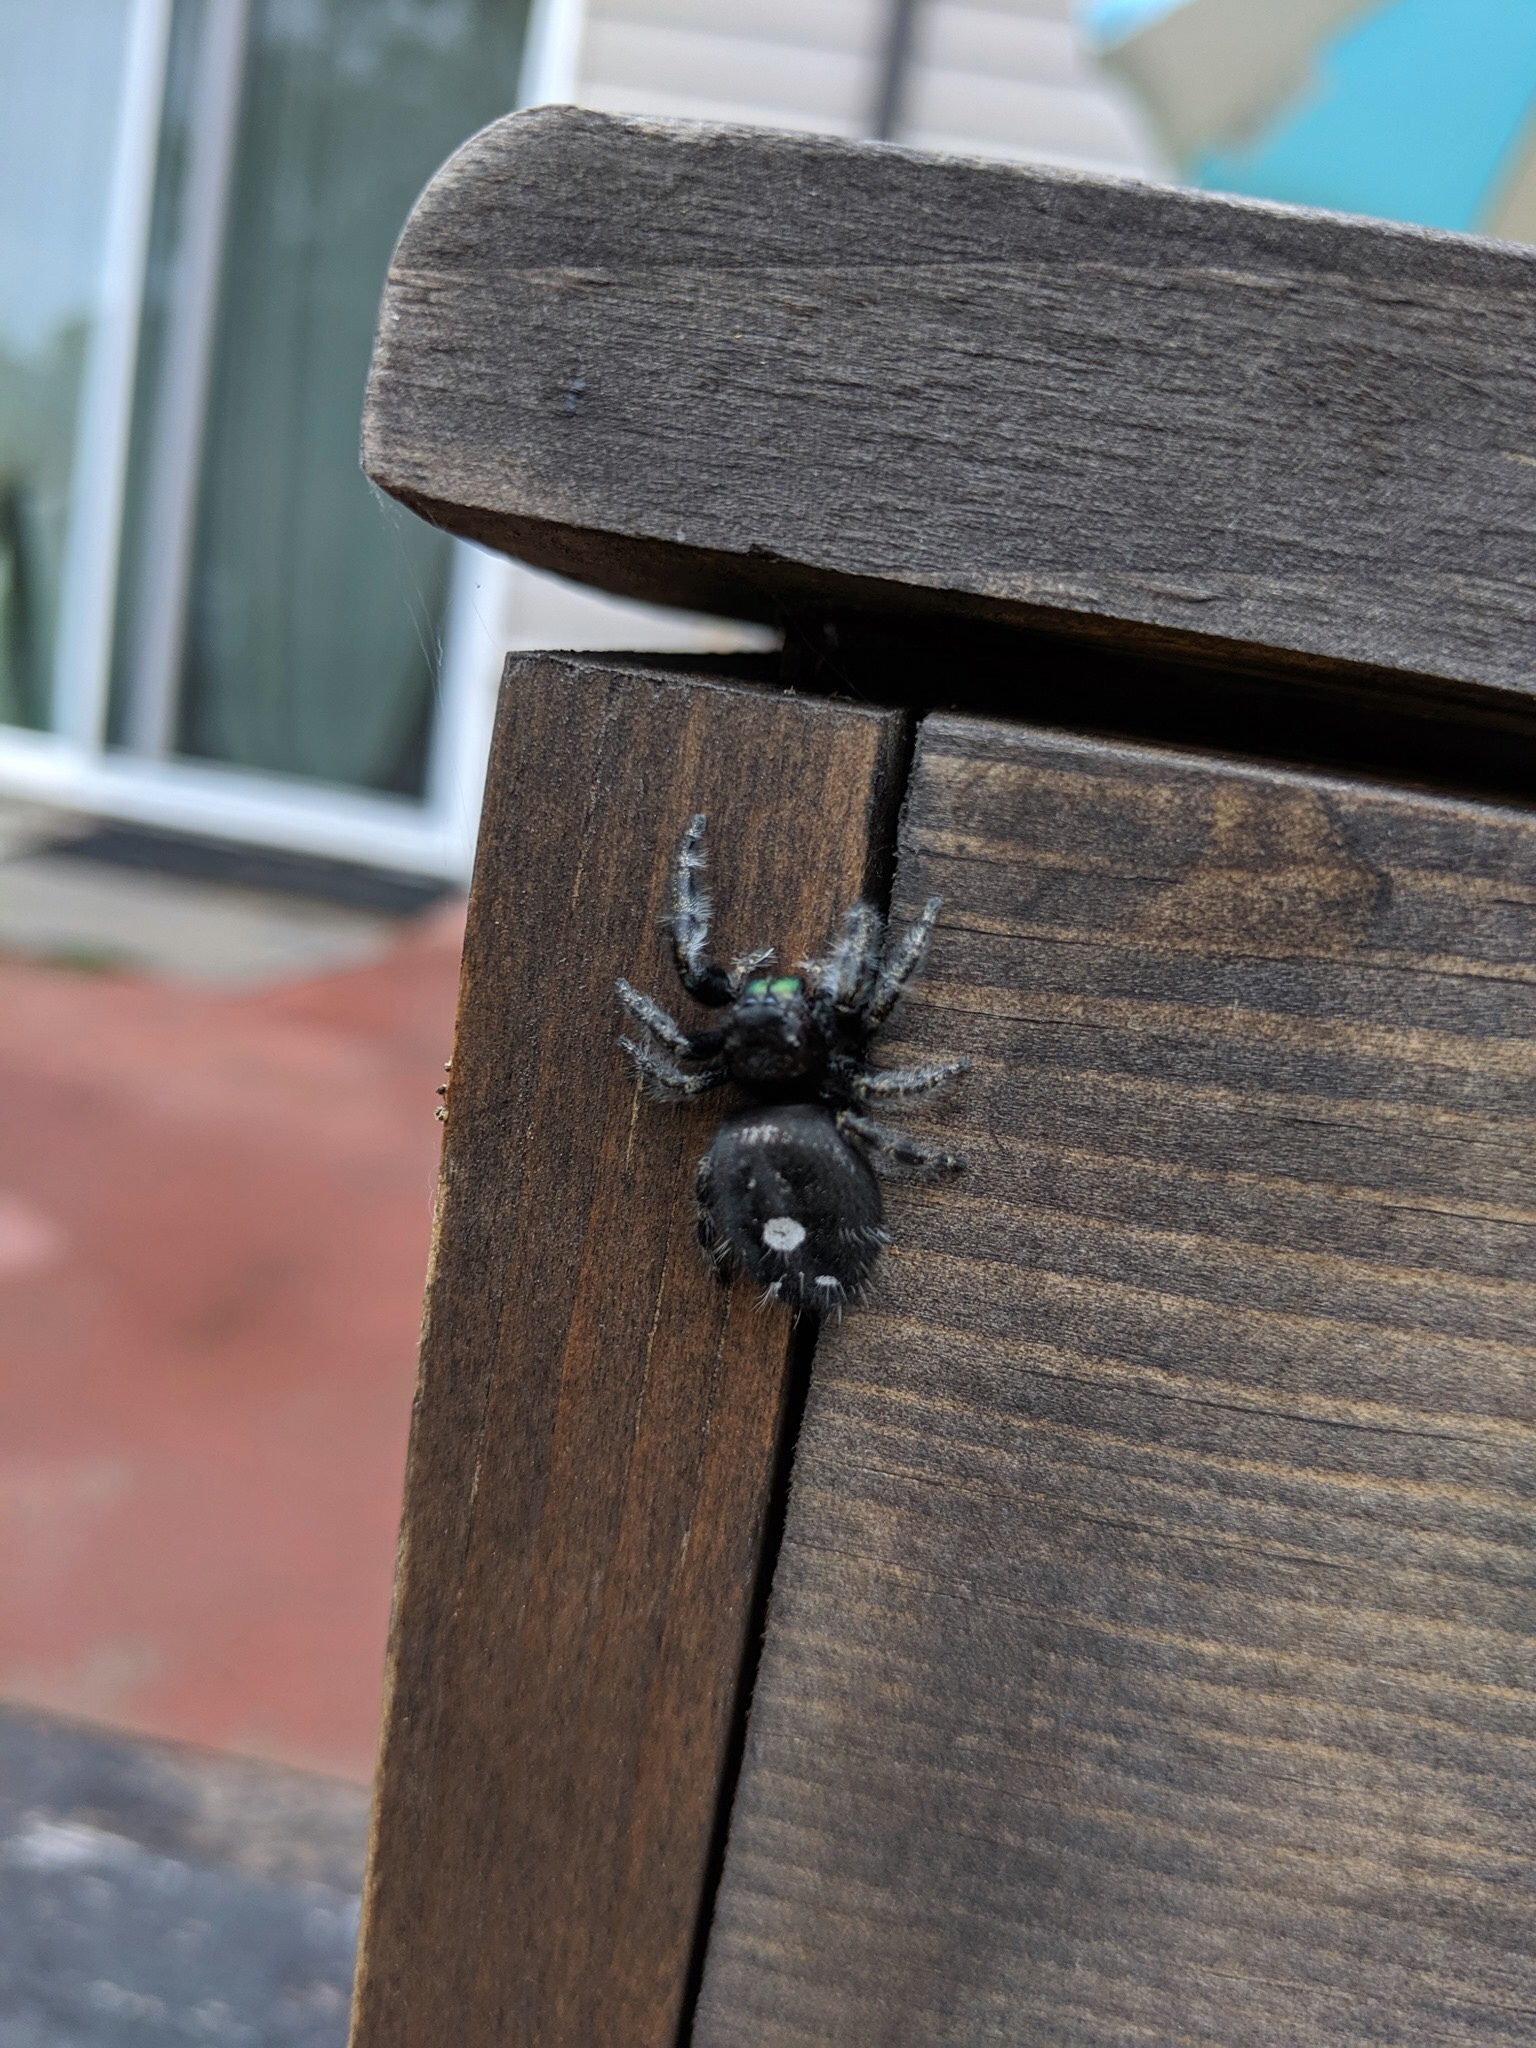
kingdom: Animalia
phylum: Arthropoda
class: Arachnida
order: Araneae
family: Salticidae
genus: Phidippus
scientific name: Phidippus audax
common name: Bold jumper
